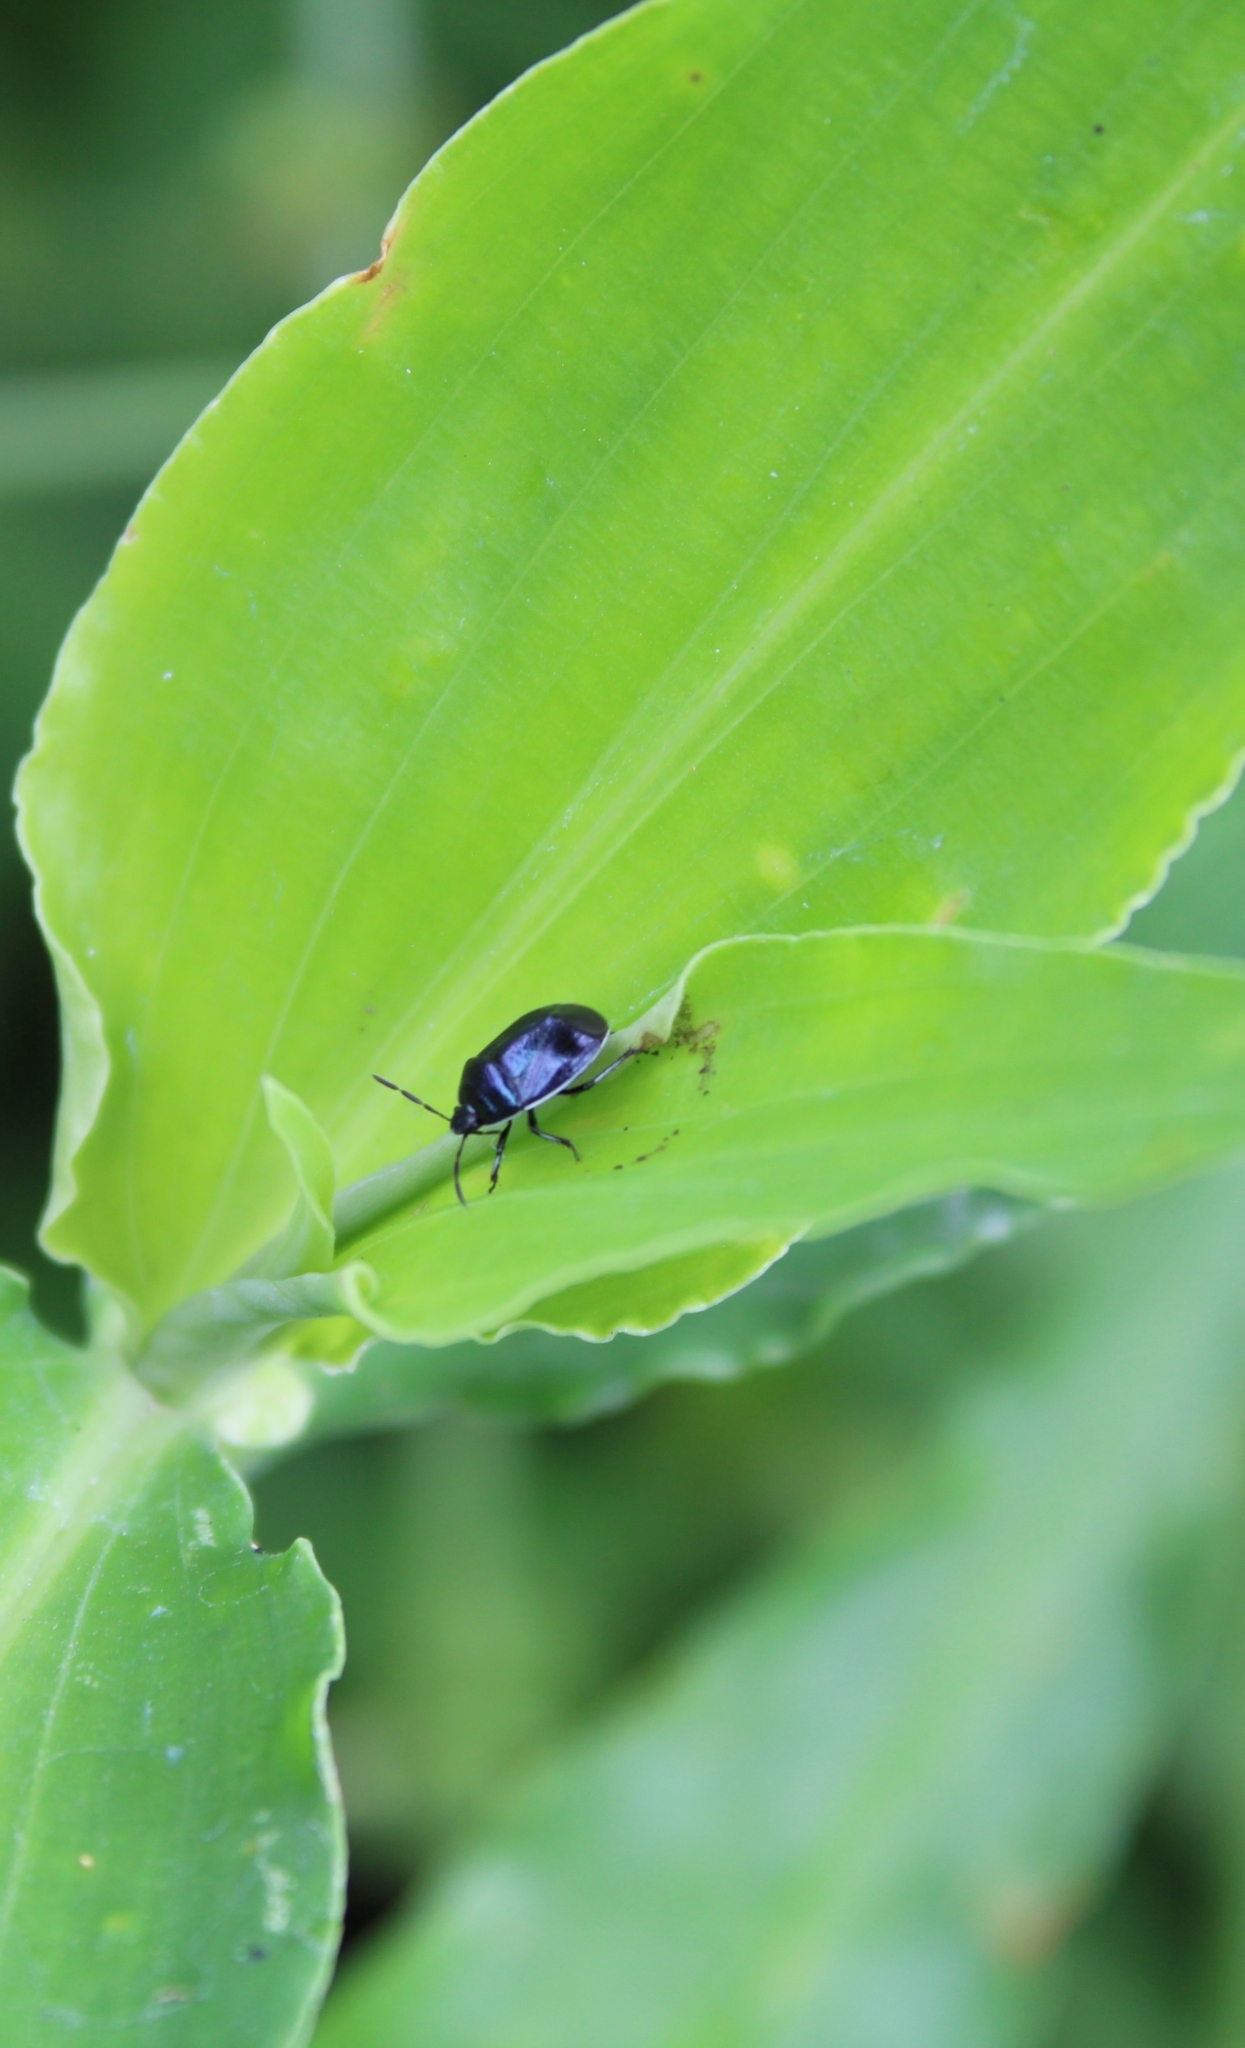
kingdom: Animalia
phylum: Arthropoda
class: Insecta
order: Hemiptera
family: Cydnidae
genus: Sehirus
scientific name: Sehirus cinctus
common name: White-margined burrower bug
